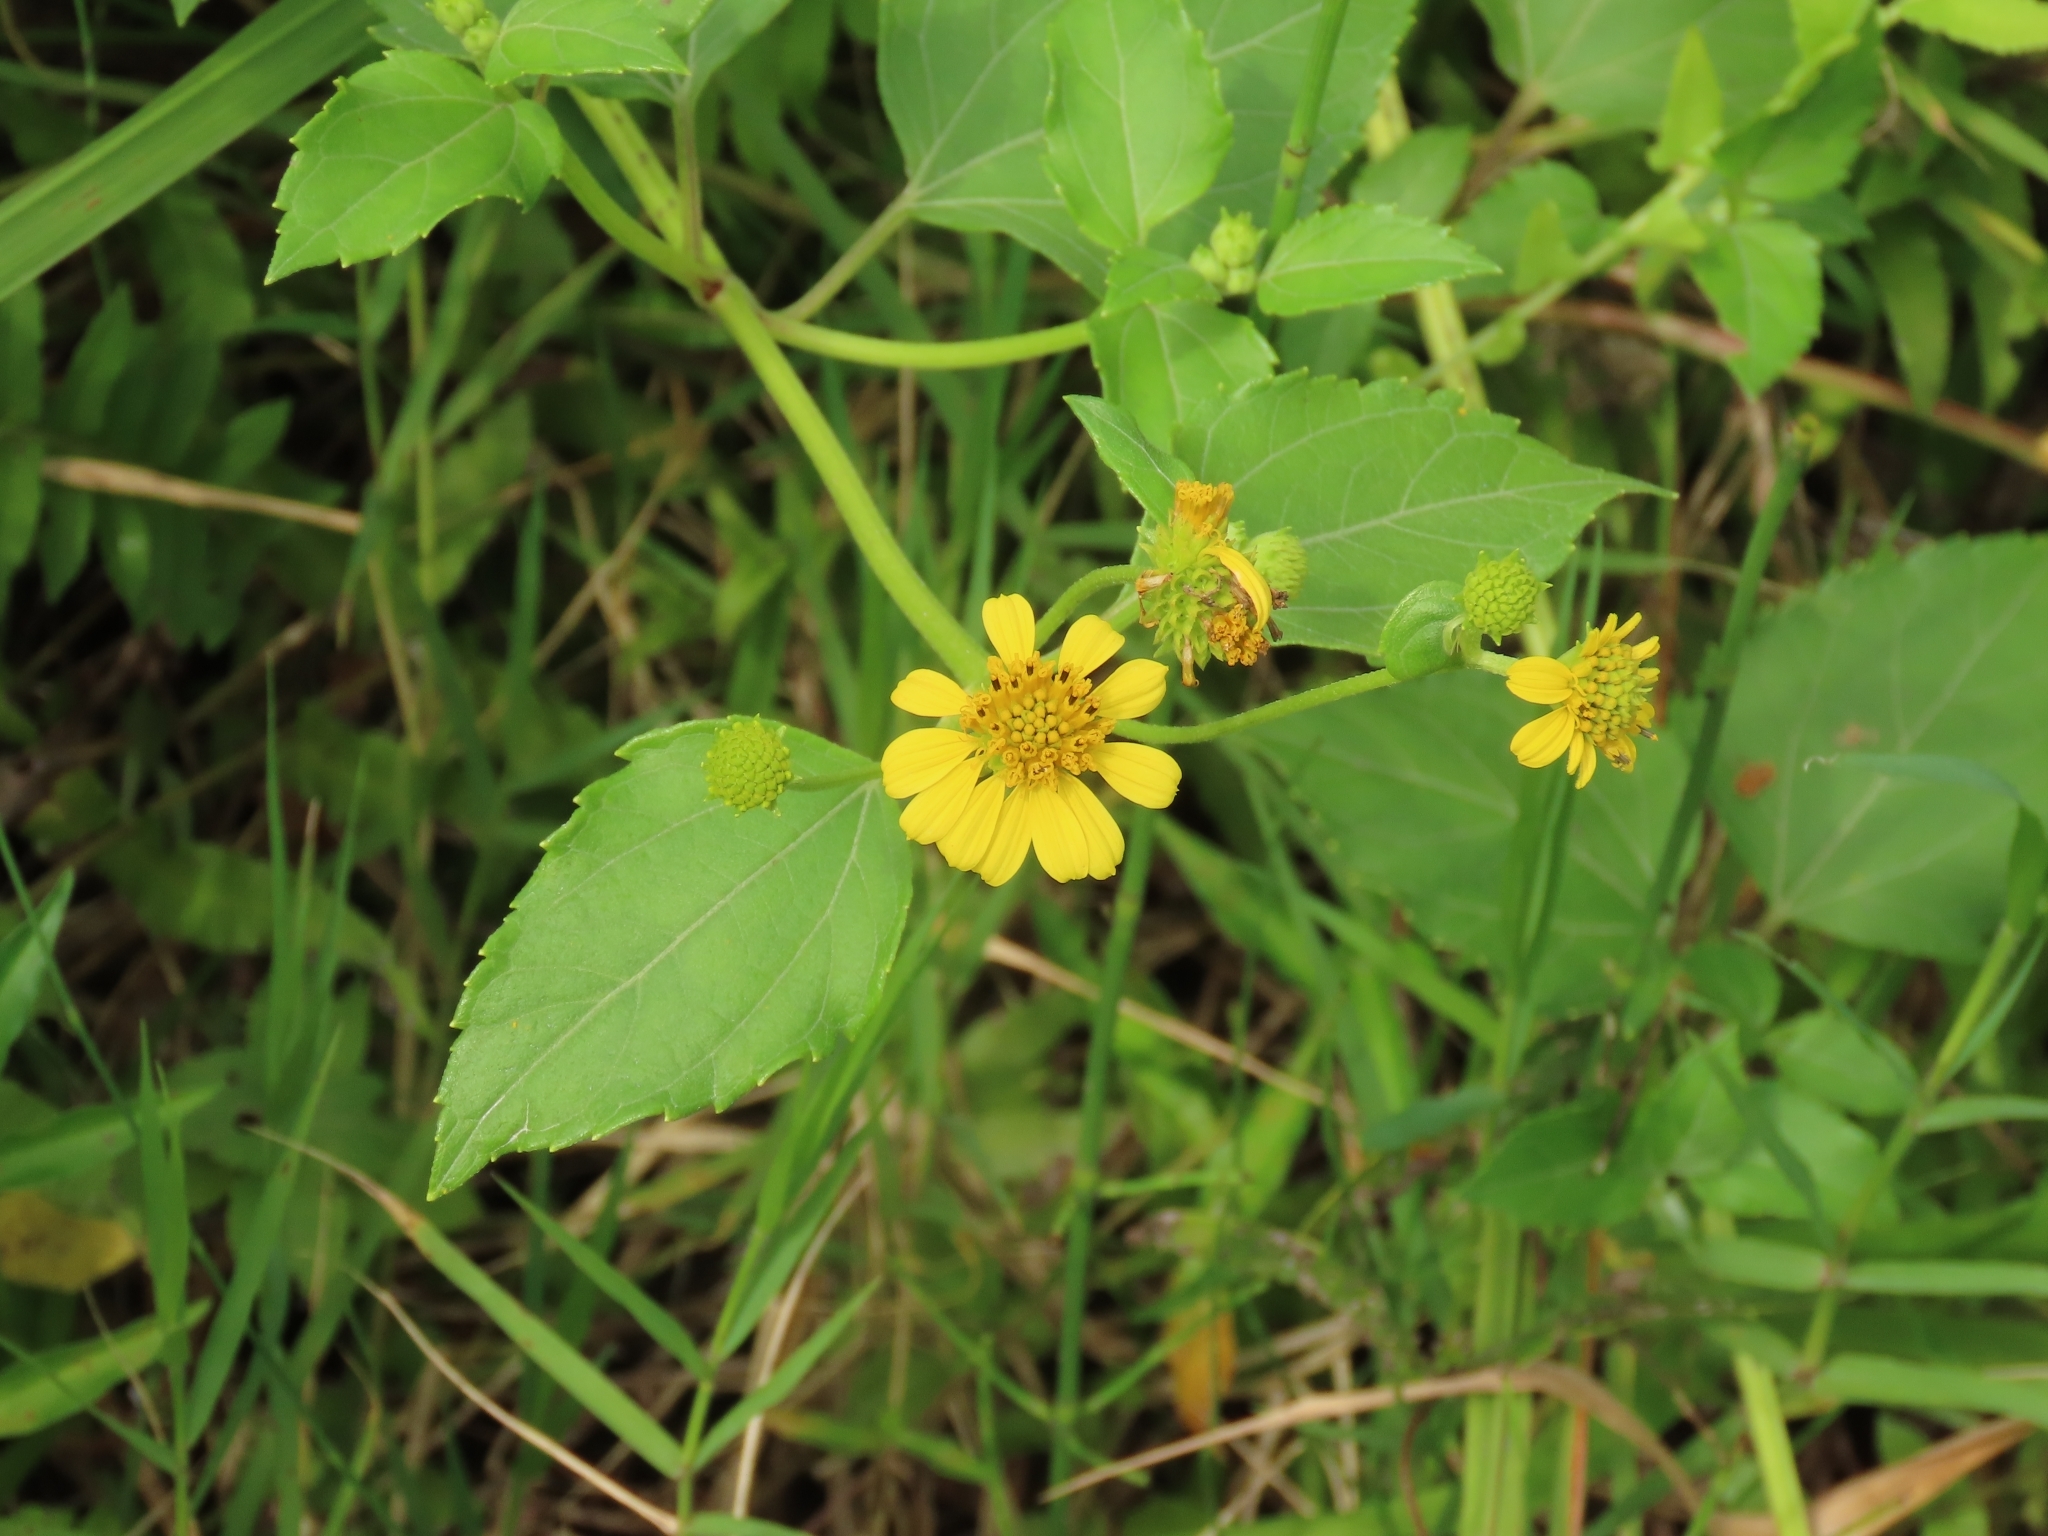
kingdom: Plantae
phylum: Tracheophyta
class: Magnoliopsida
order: Asterales
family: Asteraceae
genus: Wollastonia
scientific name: Wollastonia biflora
